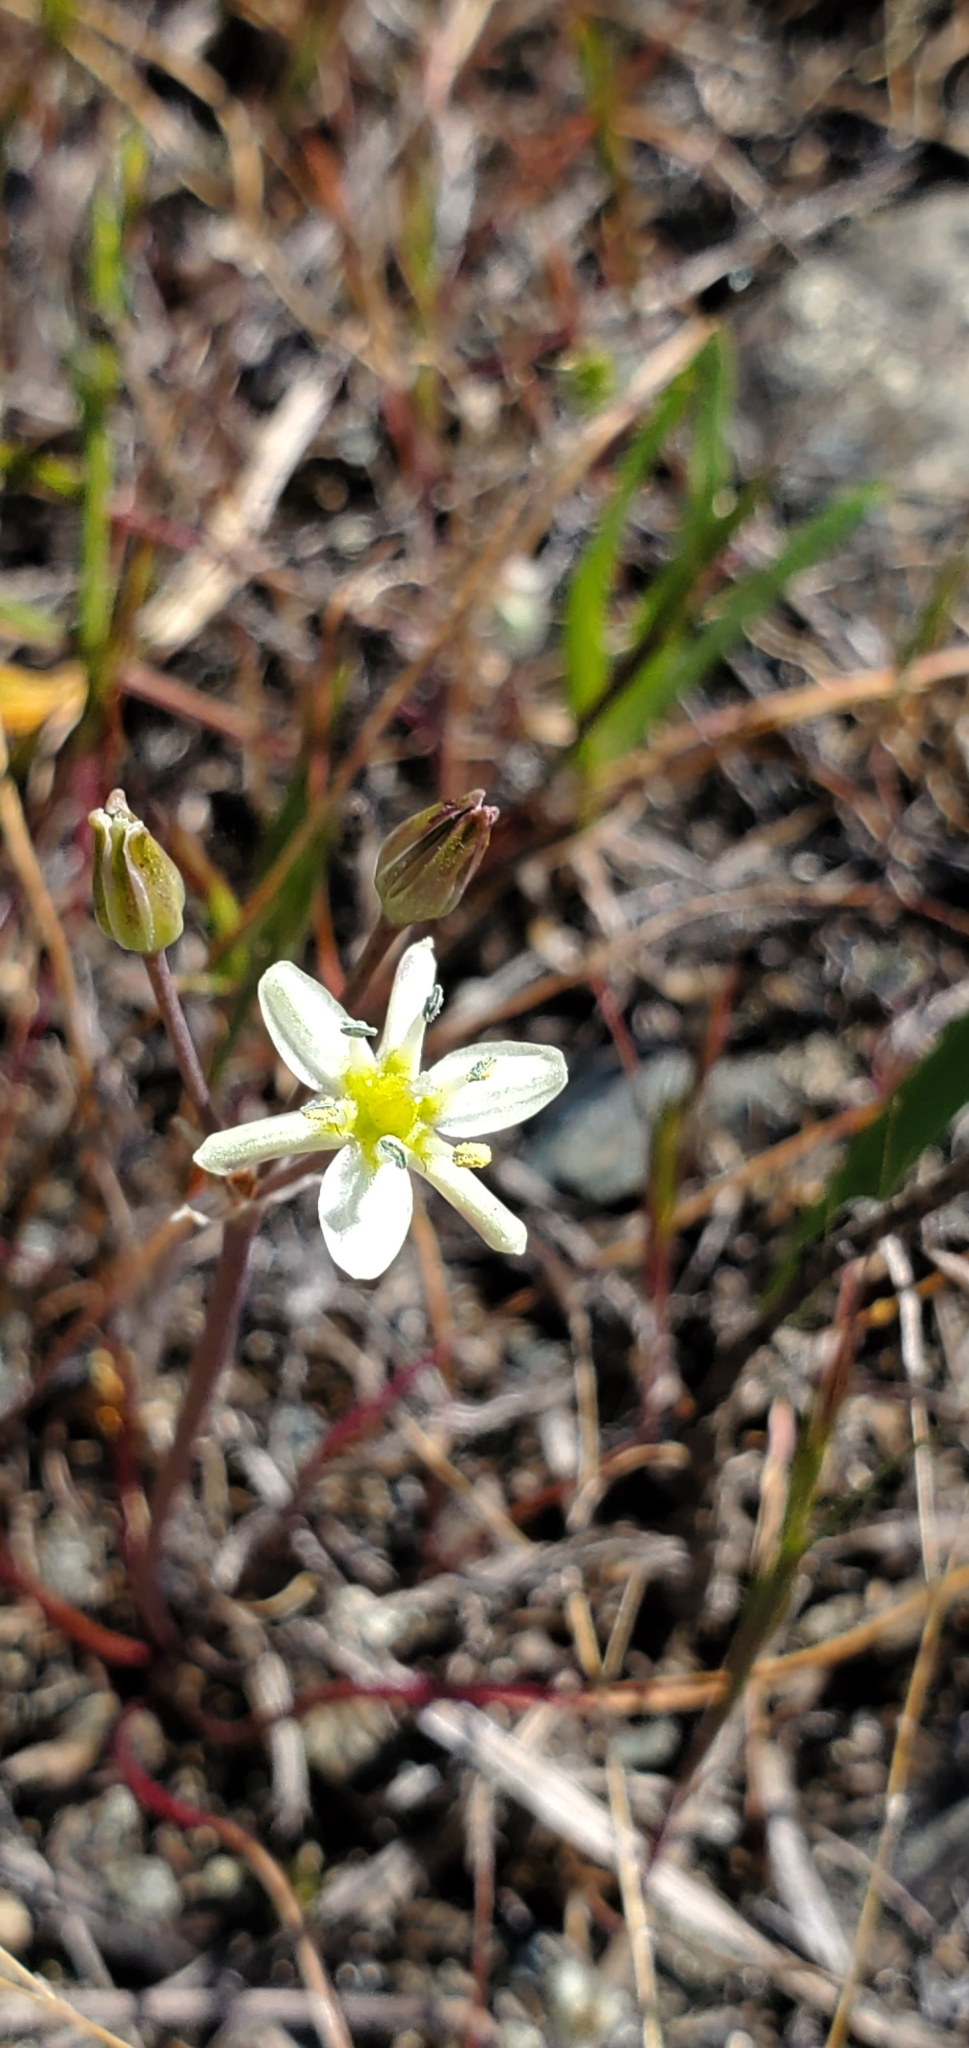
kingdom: Plantae
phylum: Tracheophyta
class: Liliopsida
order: Asparagales
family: Asparagaceae
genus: Muilla
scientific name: Muilla maritima
